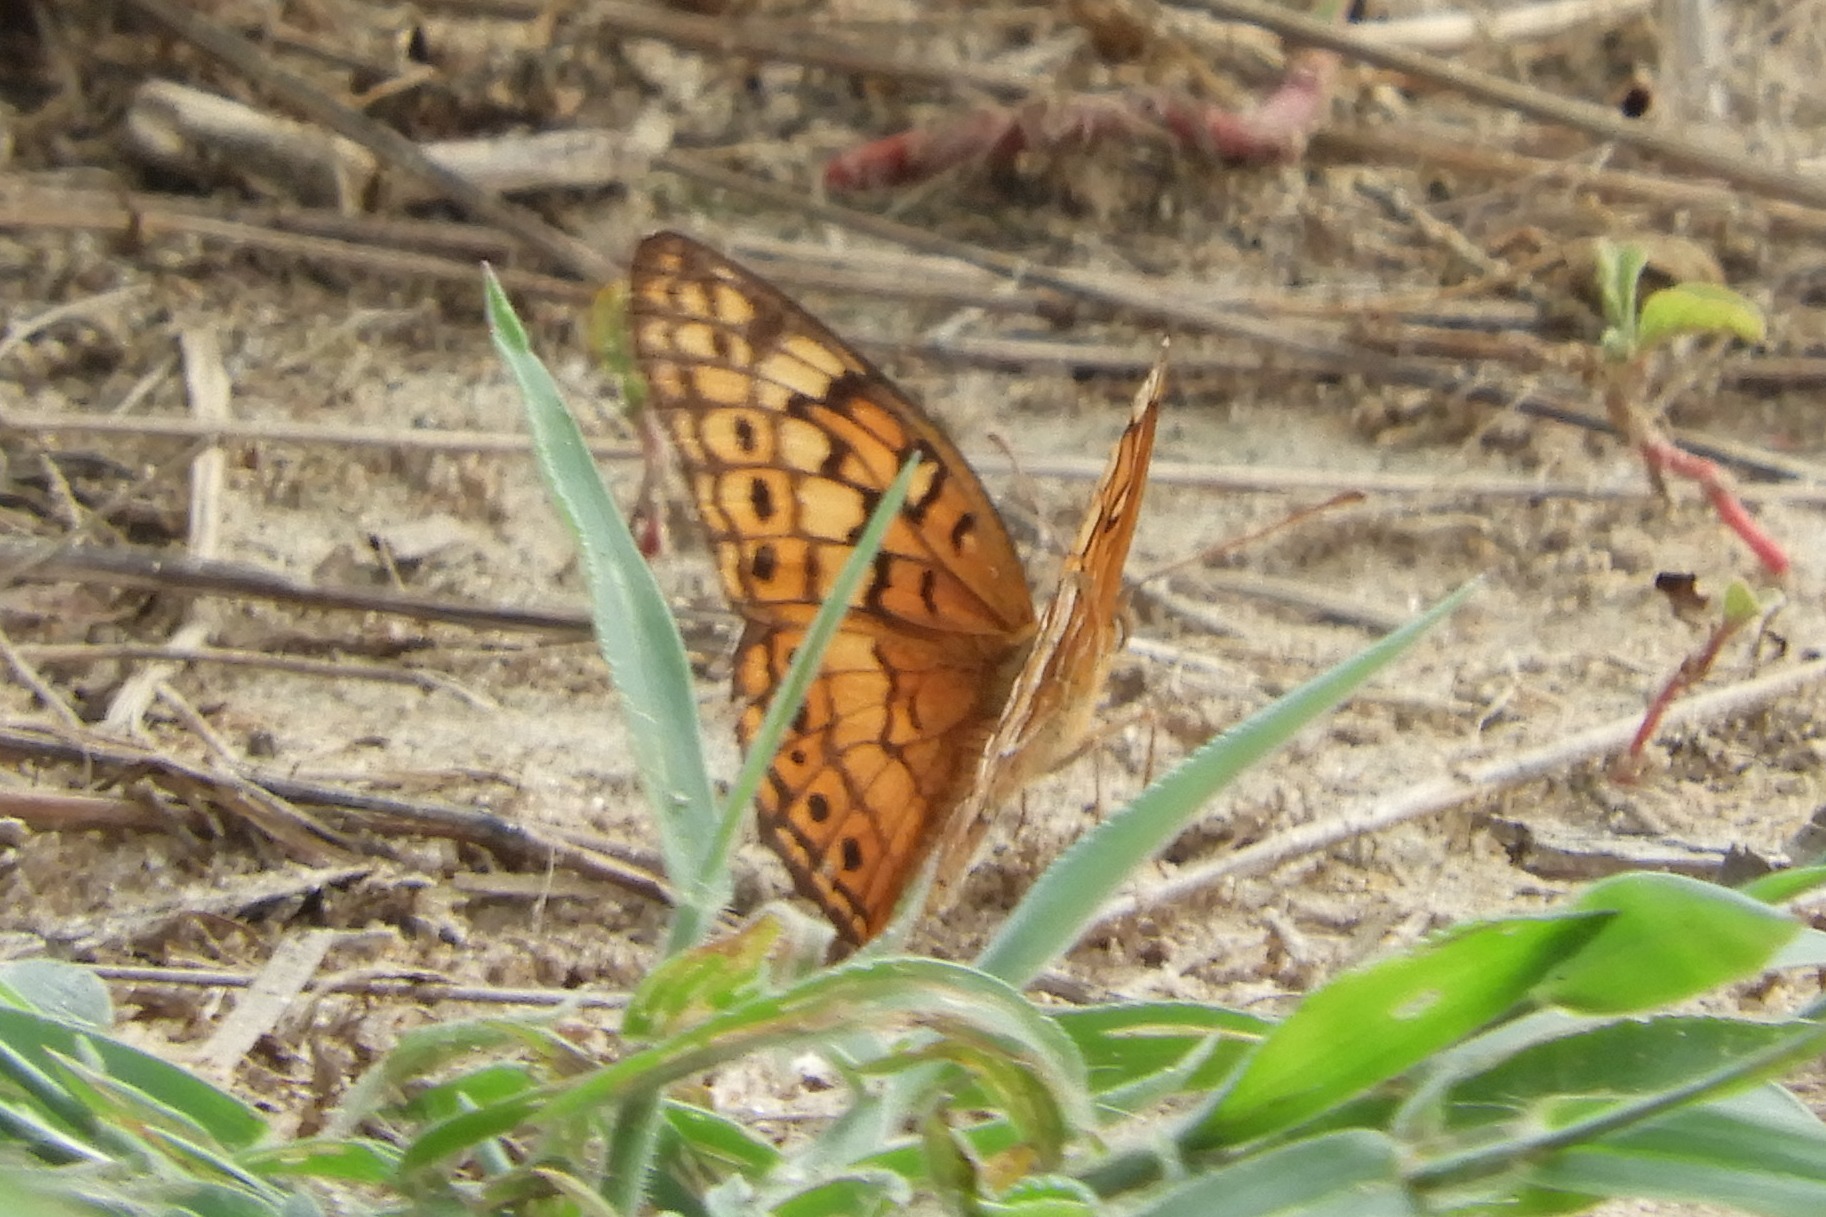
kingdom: Animalia
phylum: Arthropoda
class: Insecta
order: Lepidoptera
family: Nymphalidae
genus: Euptoieta
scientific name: Euptoieta claudia
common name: Variegated fritillary
